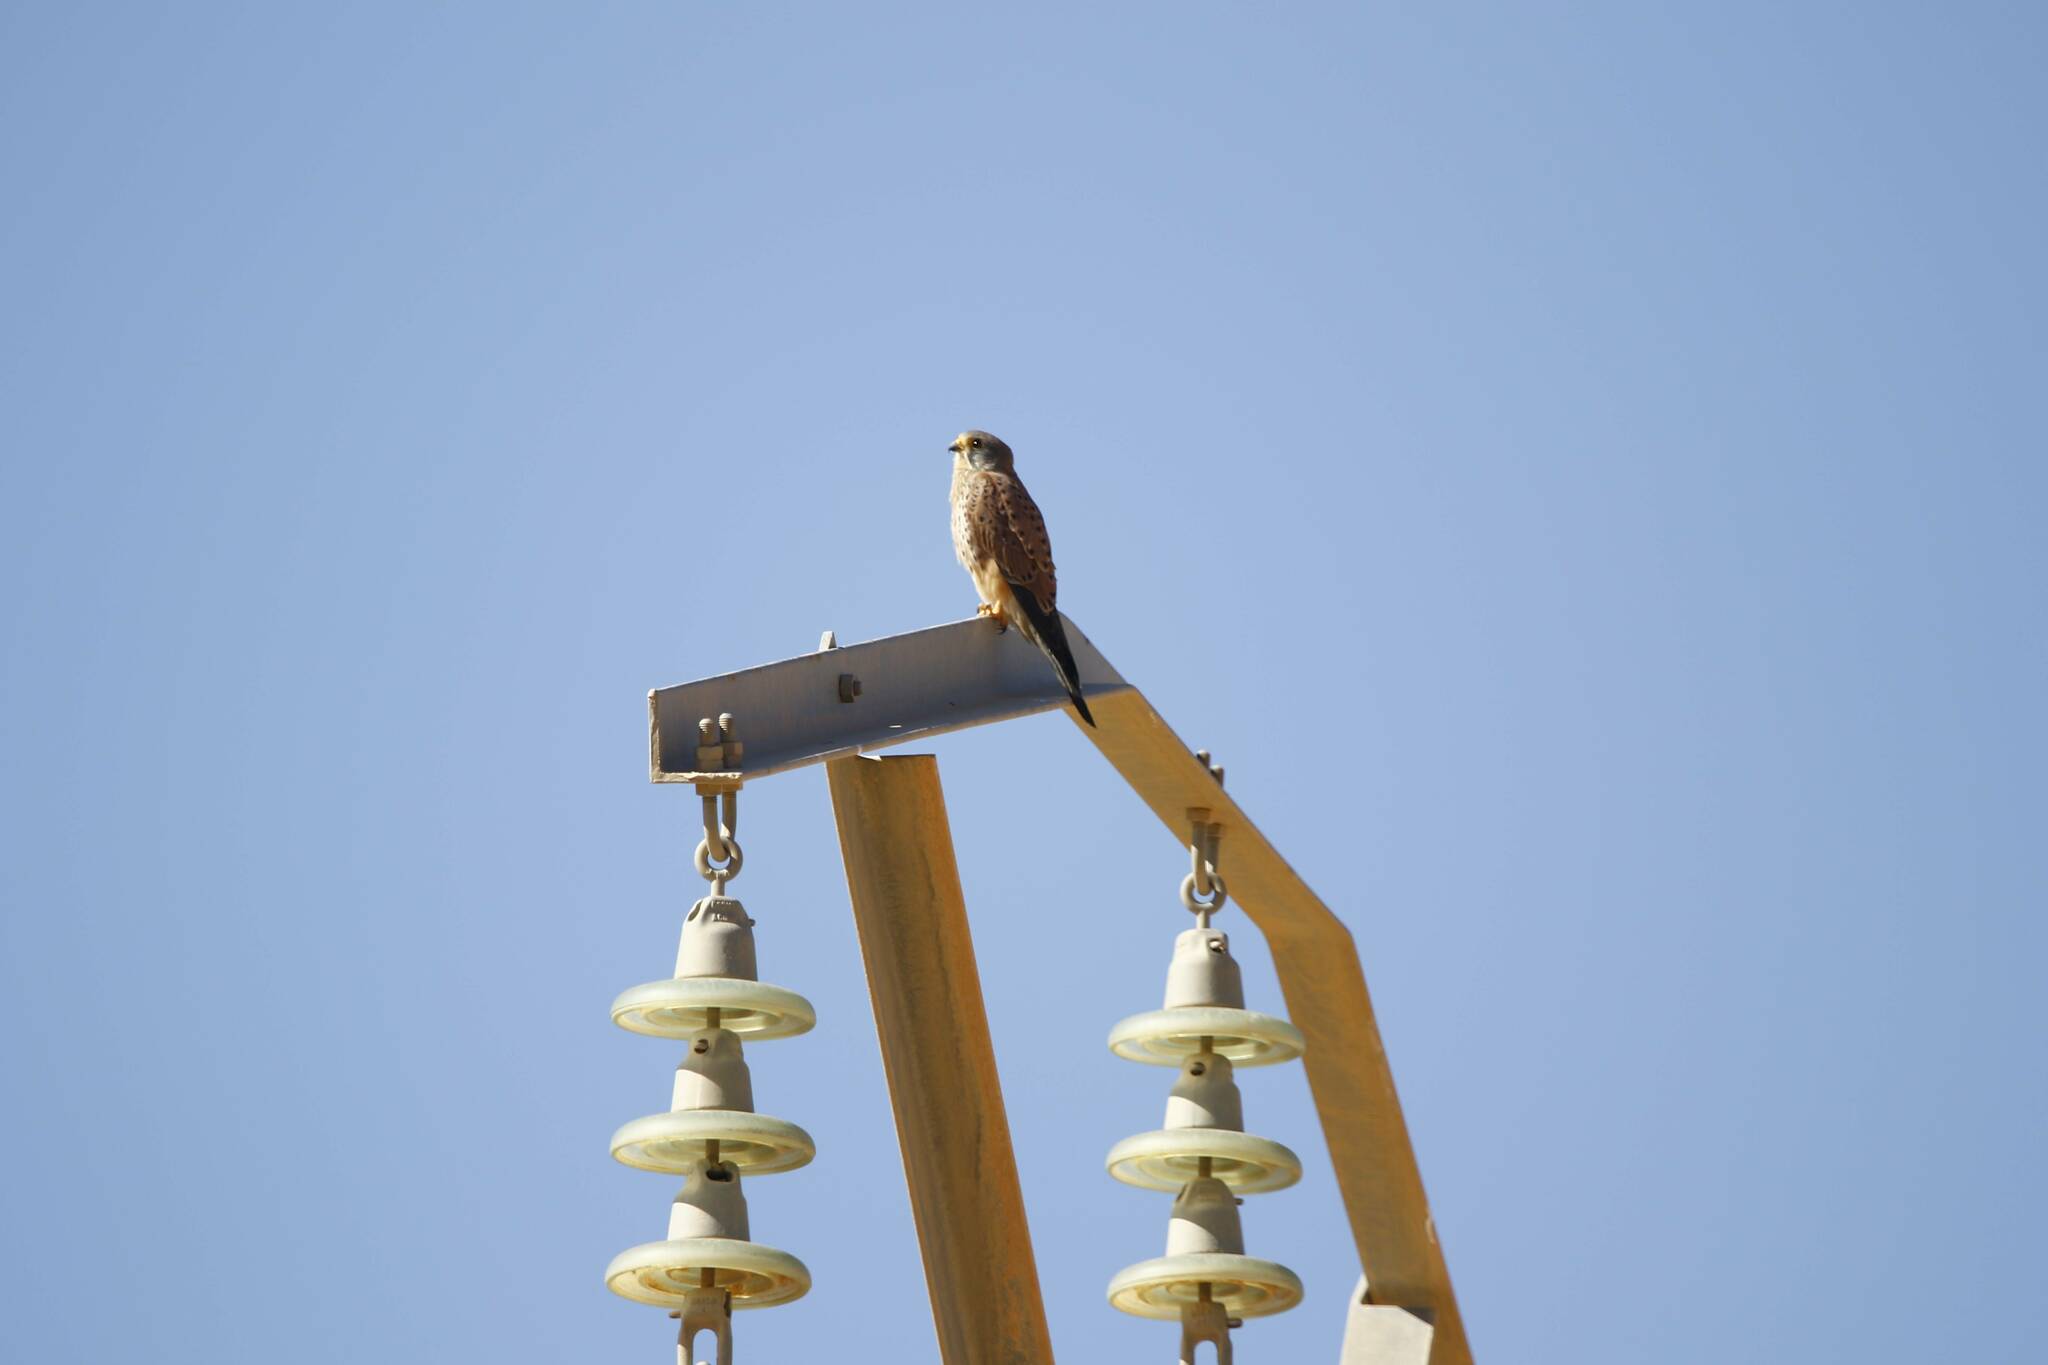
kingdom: Animalia
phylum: Chordata
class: Aves
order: Falconiformes
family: Falconidae
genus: Falco
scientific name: Falco tinnunculus
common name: Common kestrel
